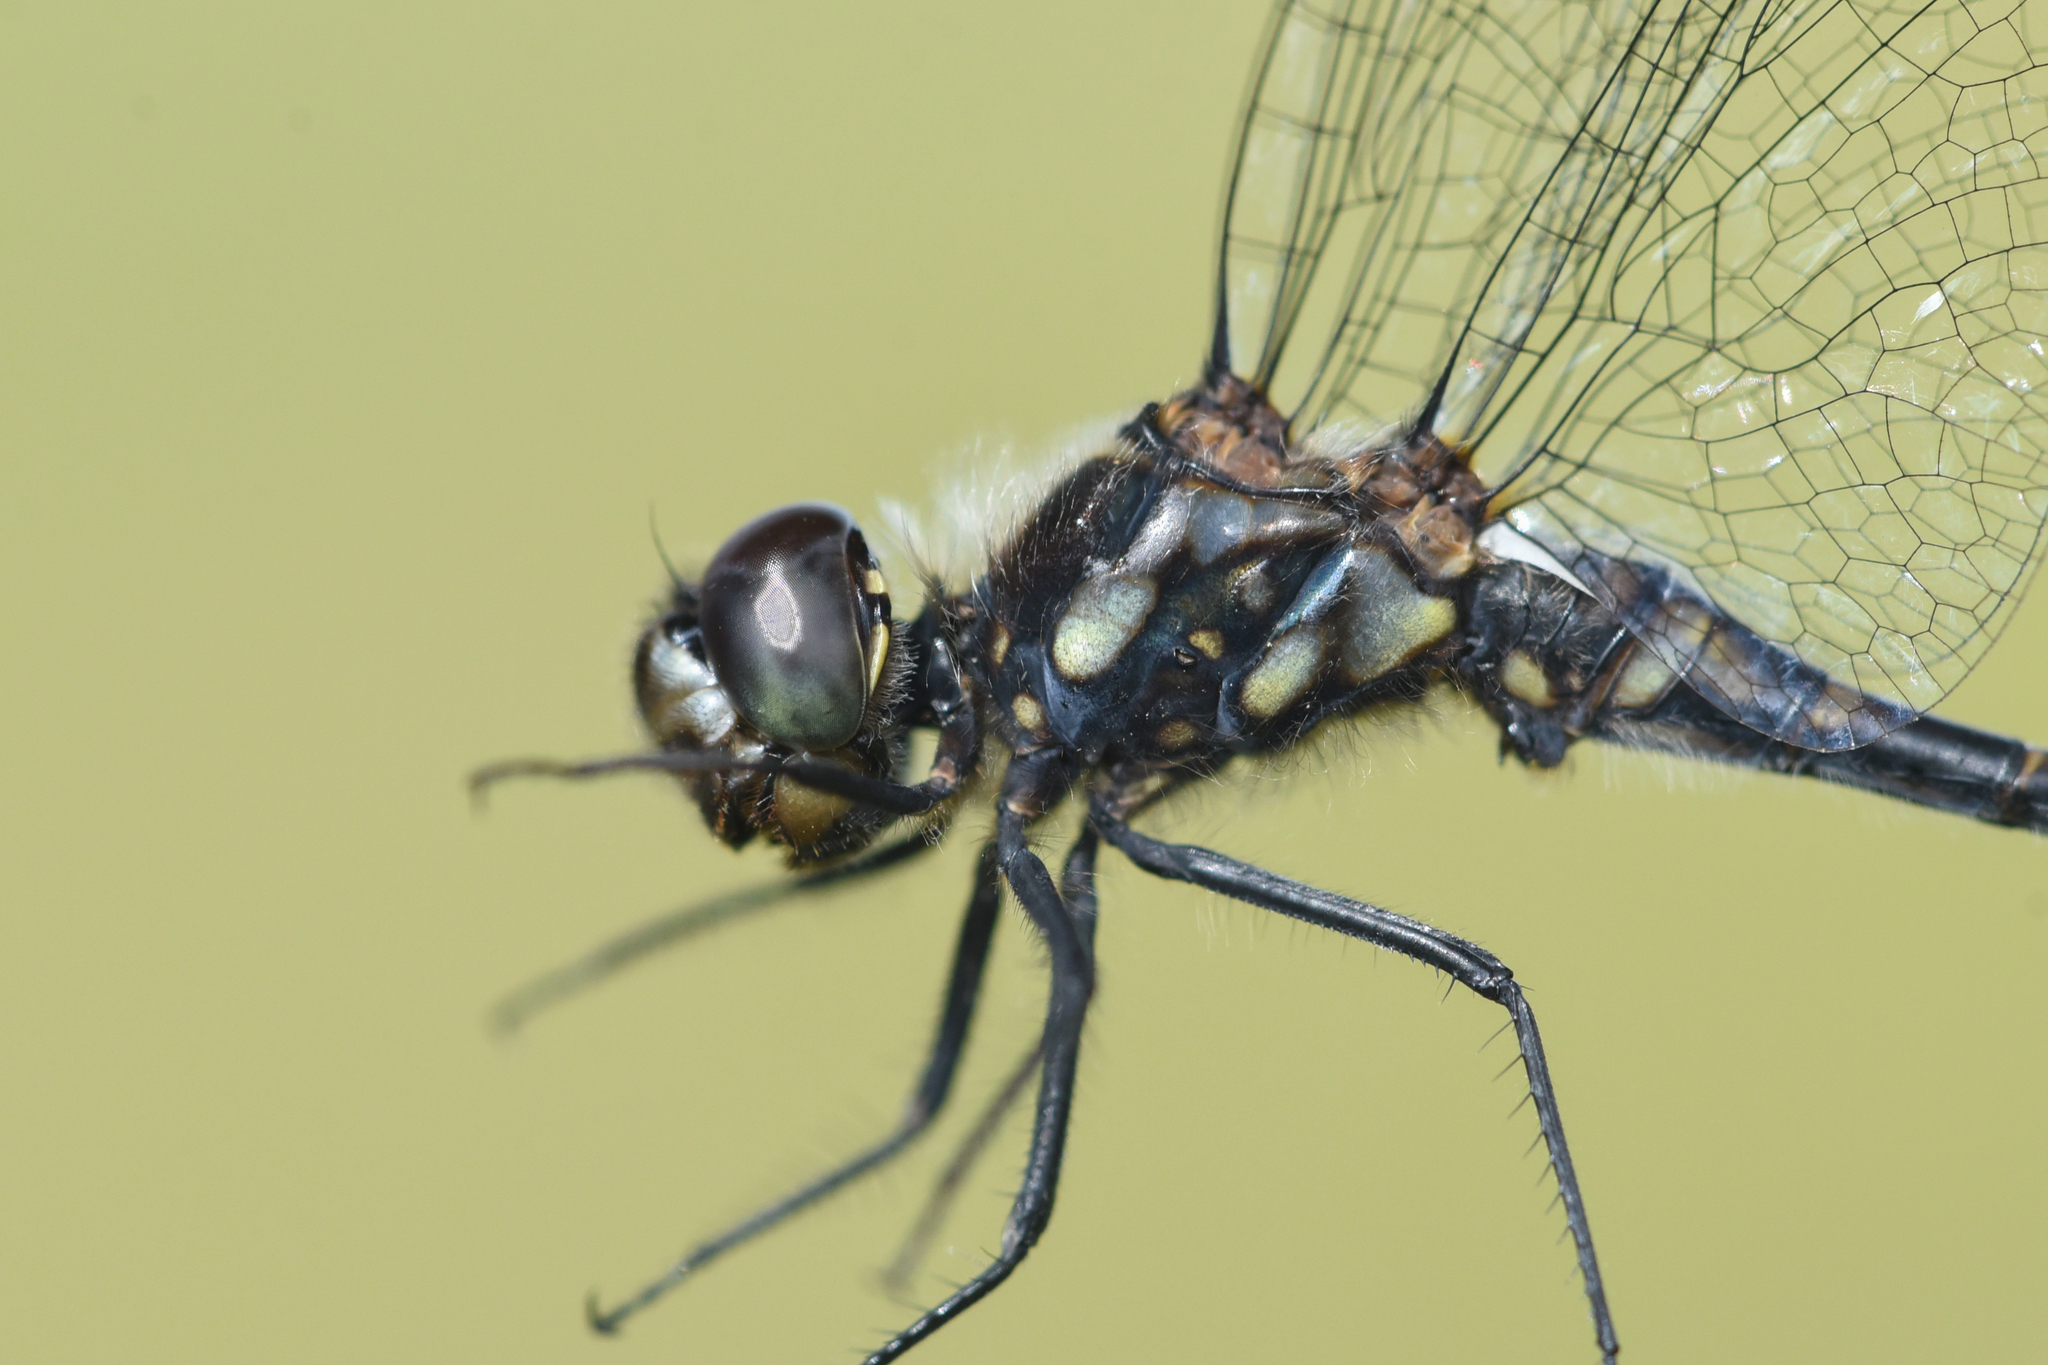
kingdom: Animalia
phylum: Arthropoda
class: Insecta
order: Odonata
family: Libellulidae
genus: Sympetrum
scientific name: Sympetrum danae
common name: Black darter
